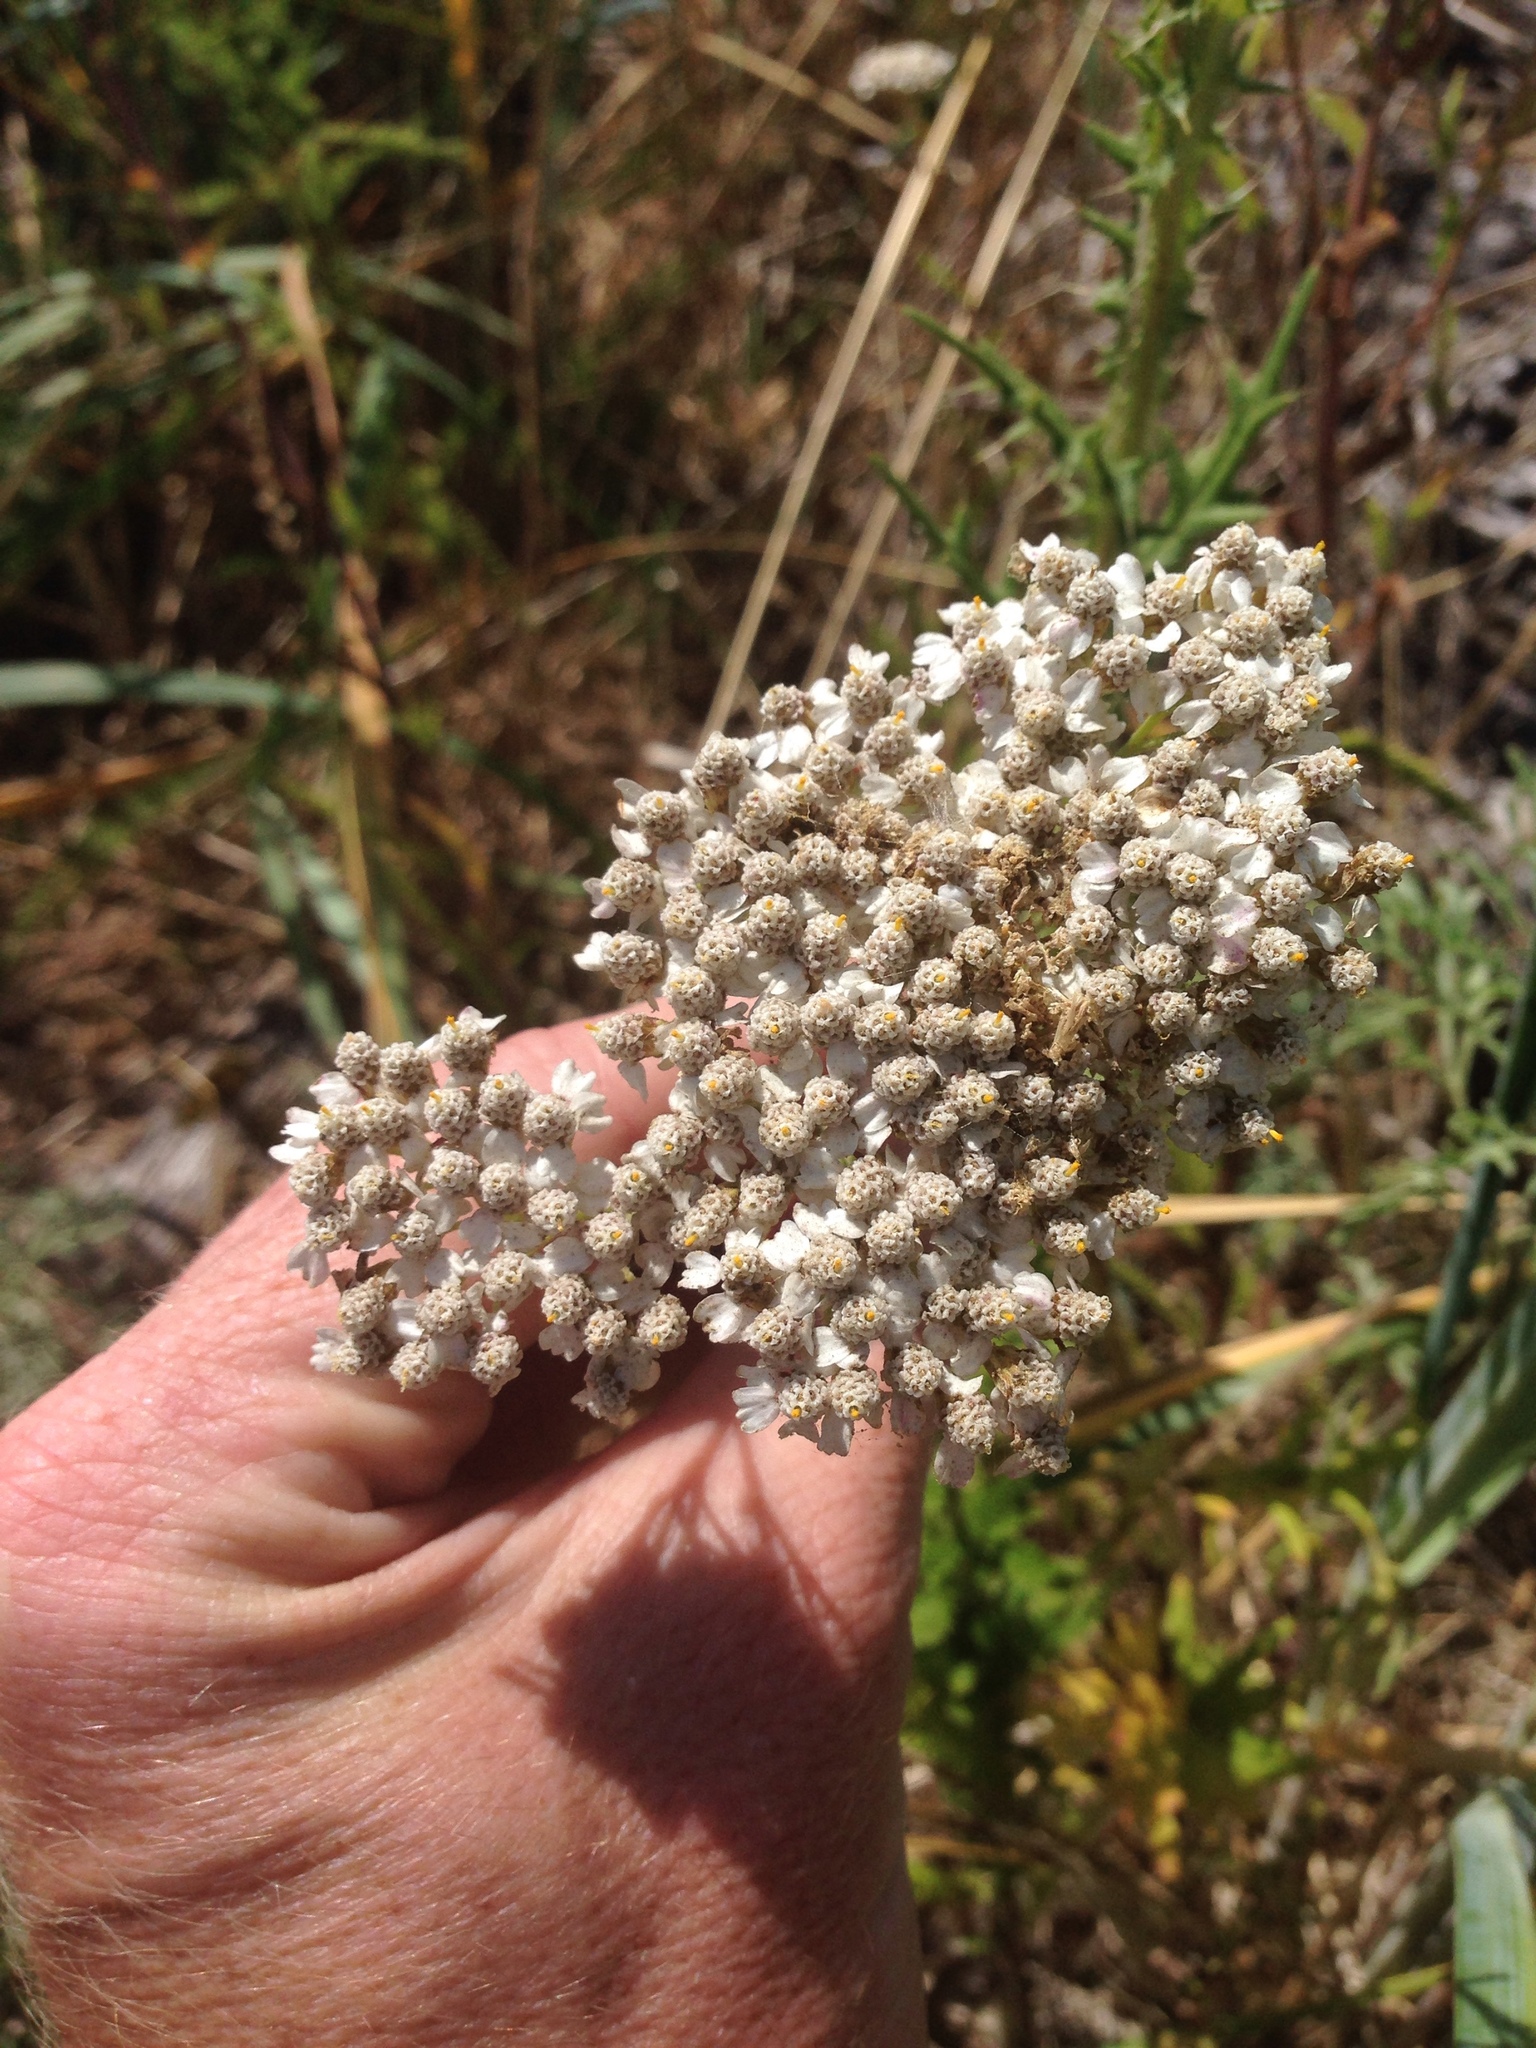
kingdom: Plantae
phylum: Tracheophyta
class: Magnoliopsida
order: Asterales
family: Asteraceae
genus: Achillea
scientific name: Achillea millefolium
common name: Yarrow
